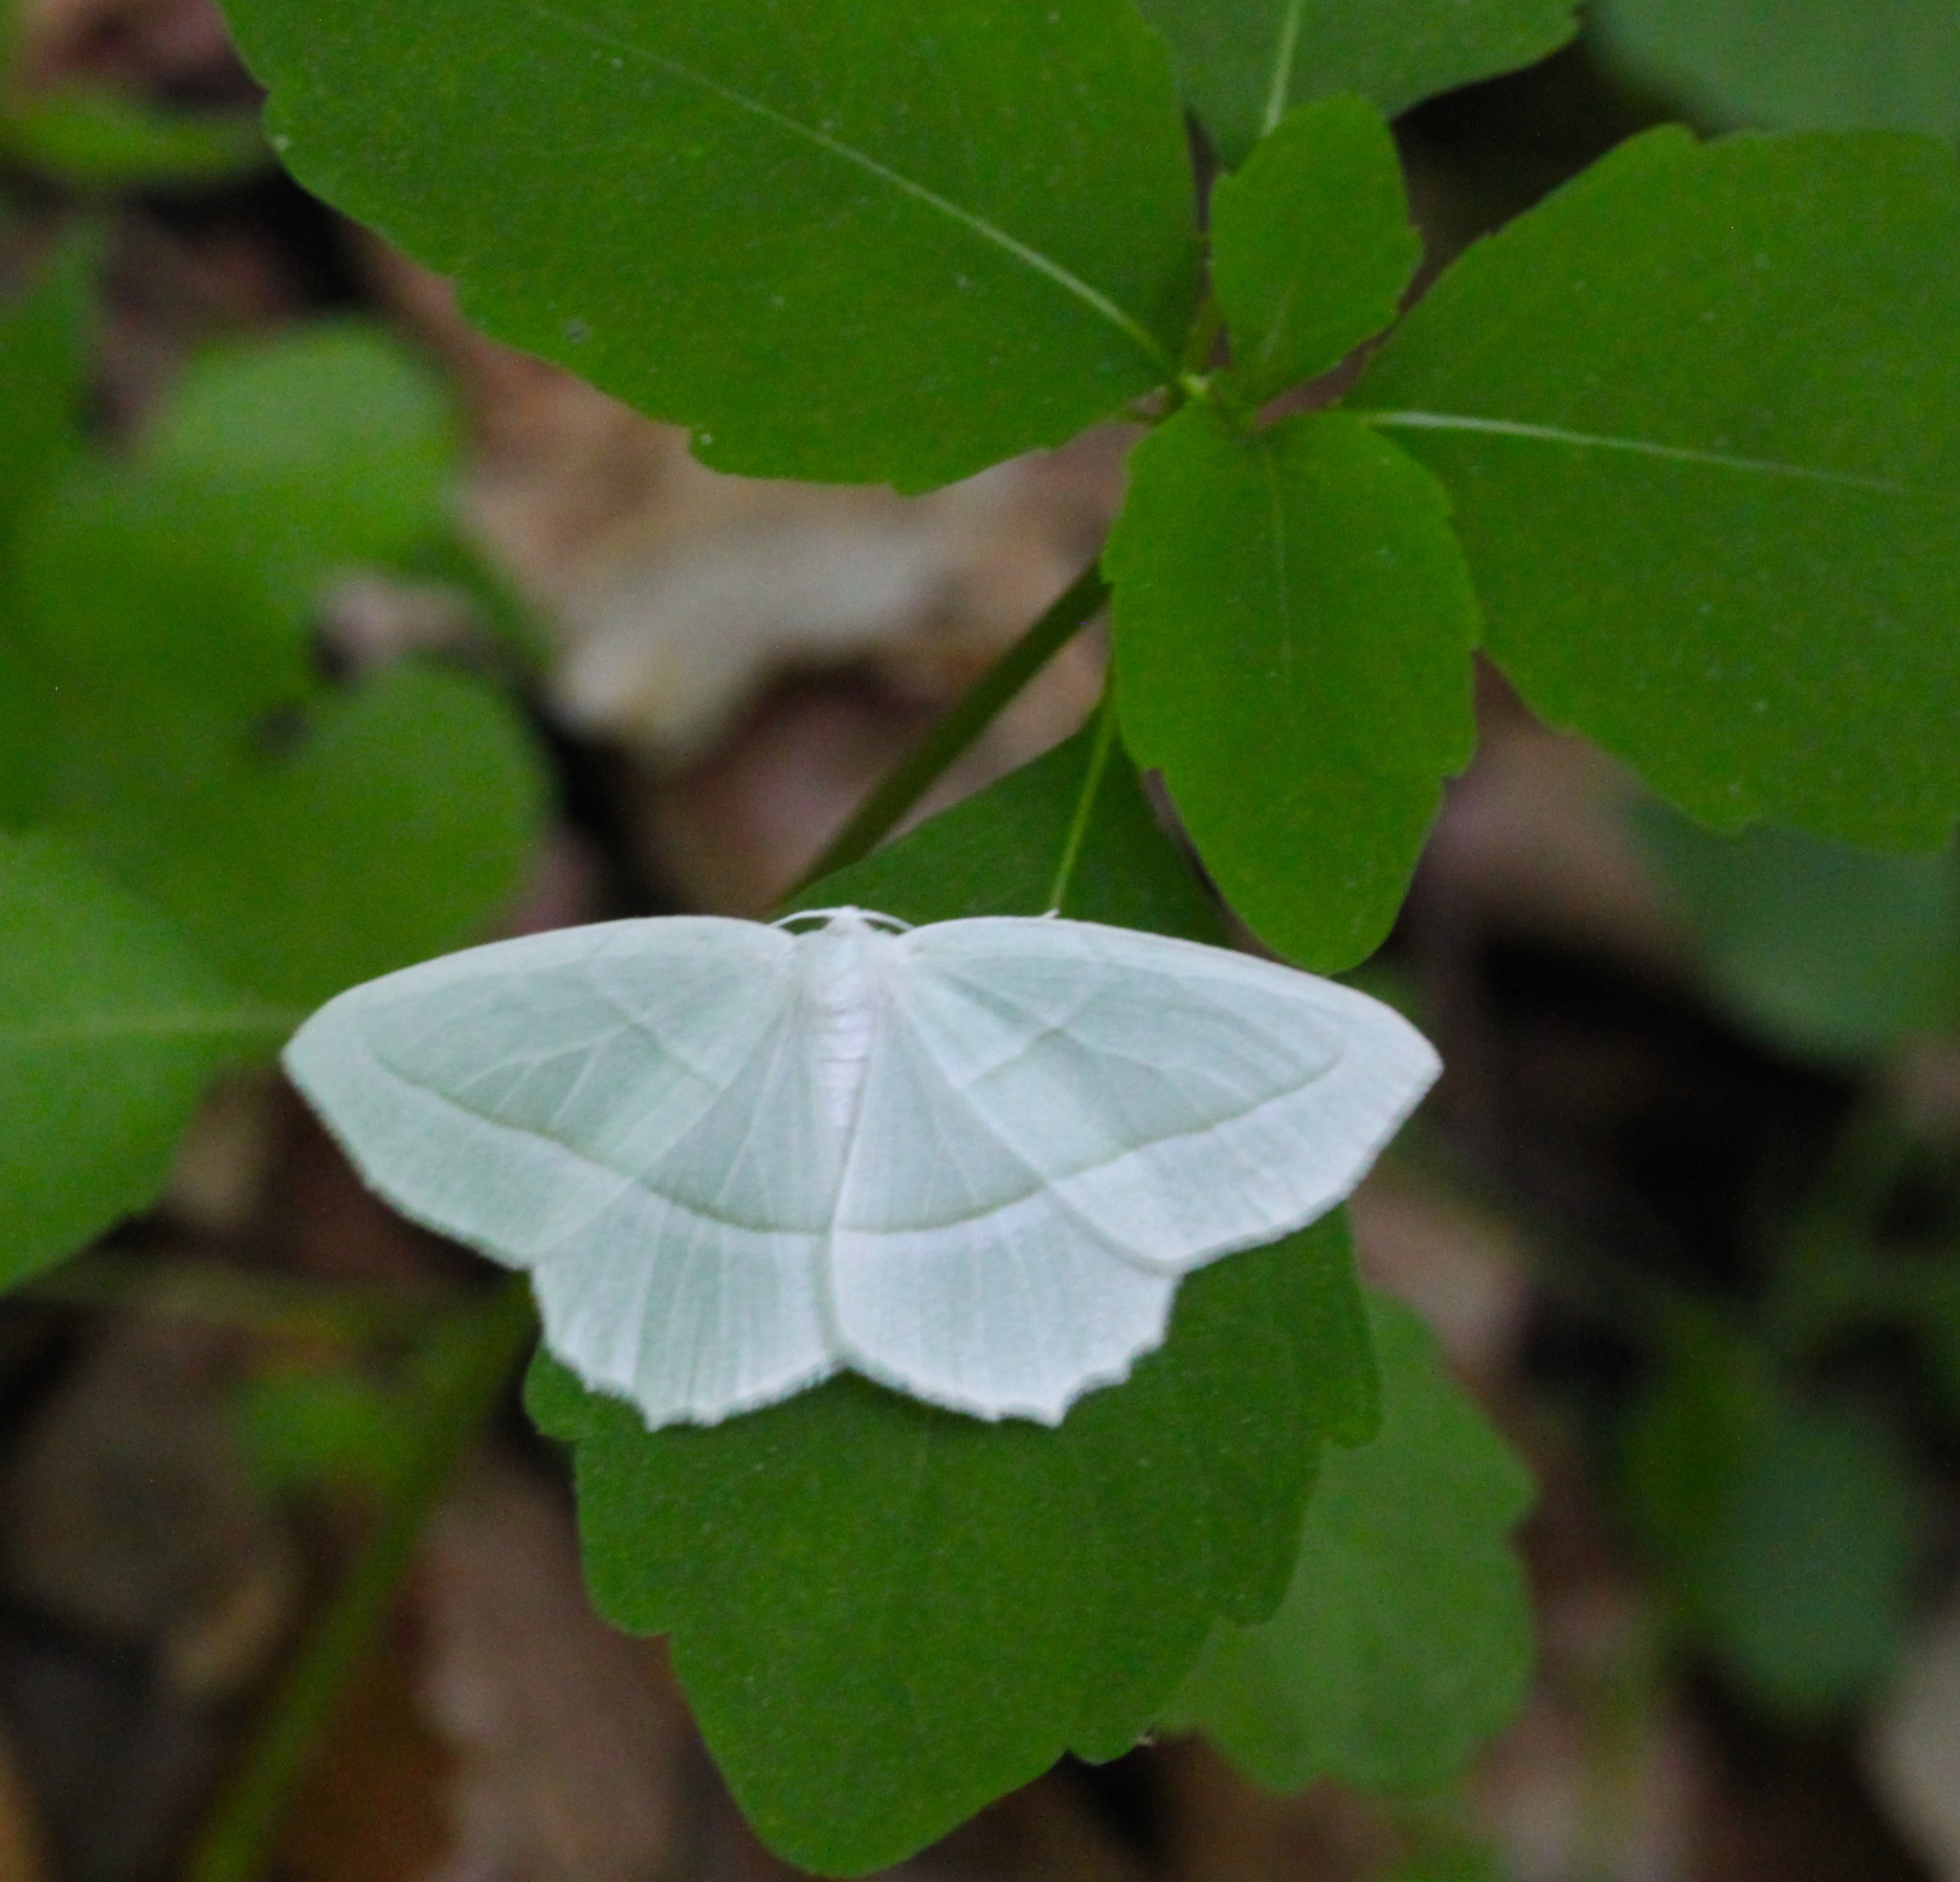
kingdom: Animalia
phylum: Arthropoda
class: Insecta
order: Lepidoptera
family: Geometridae
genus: Campaea
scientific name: Campaea perlata
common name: Fringed looper
